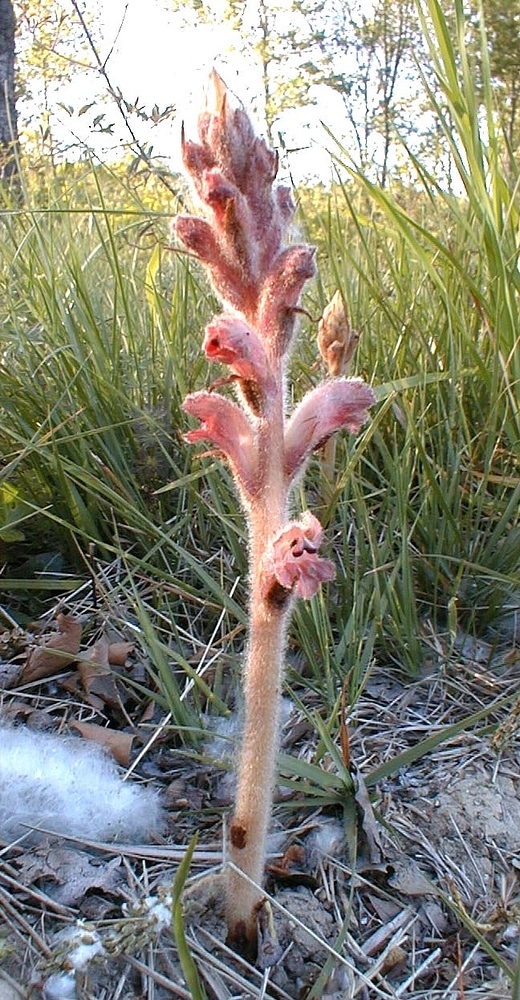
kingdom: Plantae
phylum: Tracheophyta
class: Magnoliopsida
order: Lamiales
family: Orobanchaceae
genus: Orobanche
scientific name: Orobanche caryophyllacea
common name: Bedstraw broomrape
